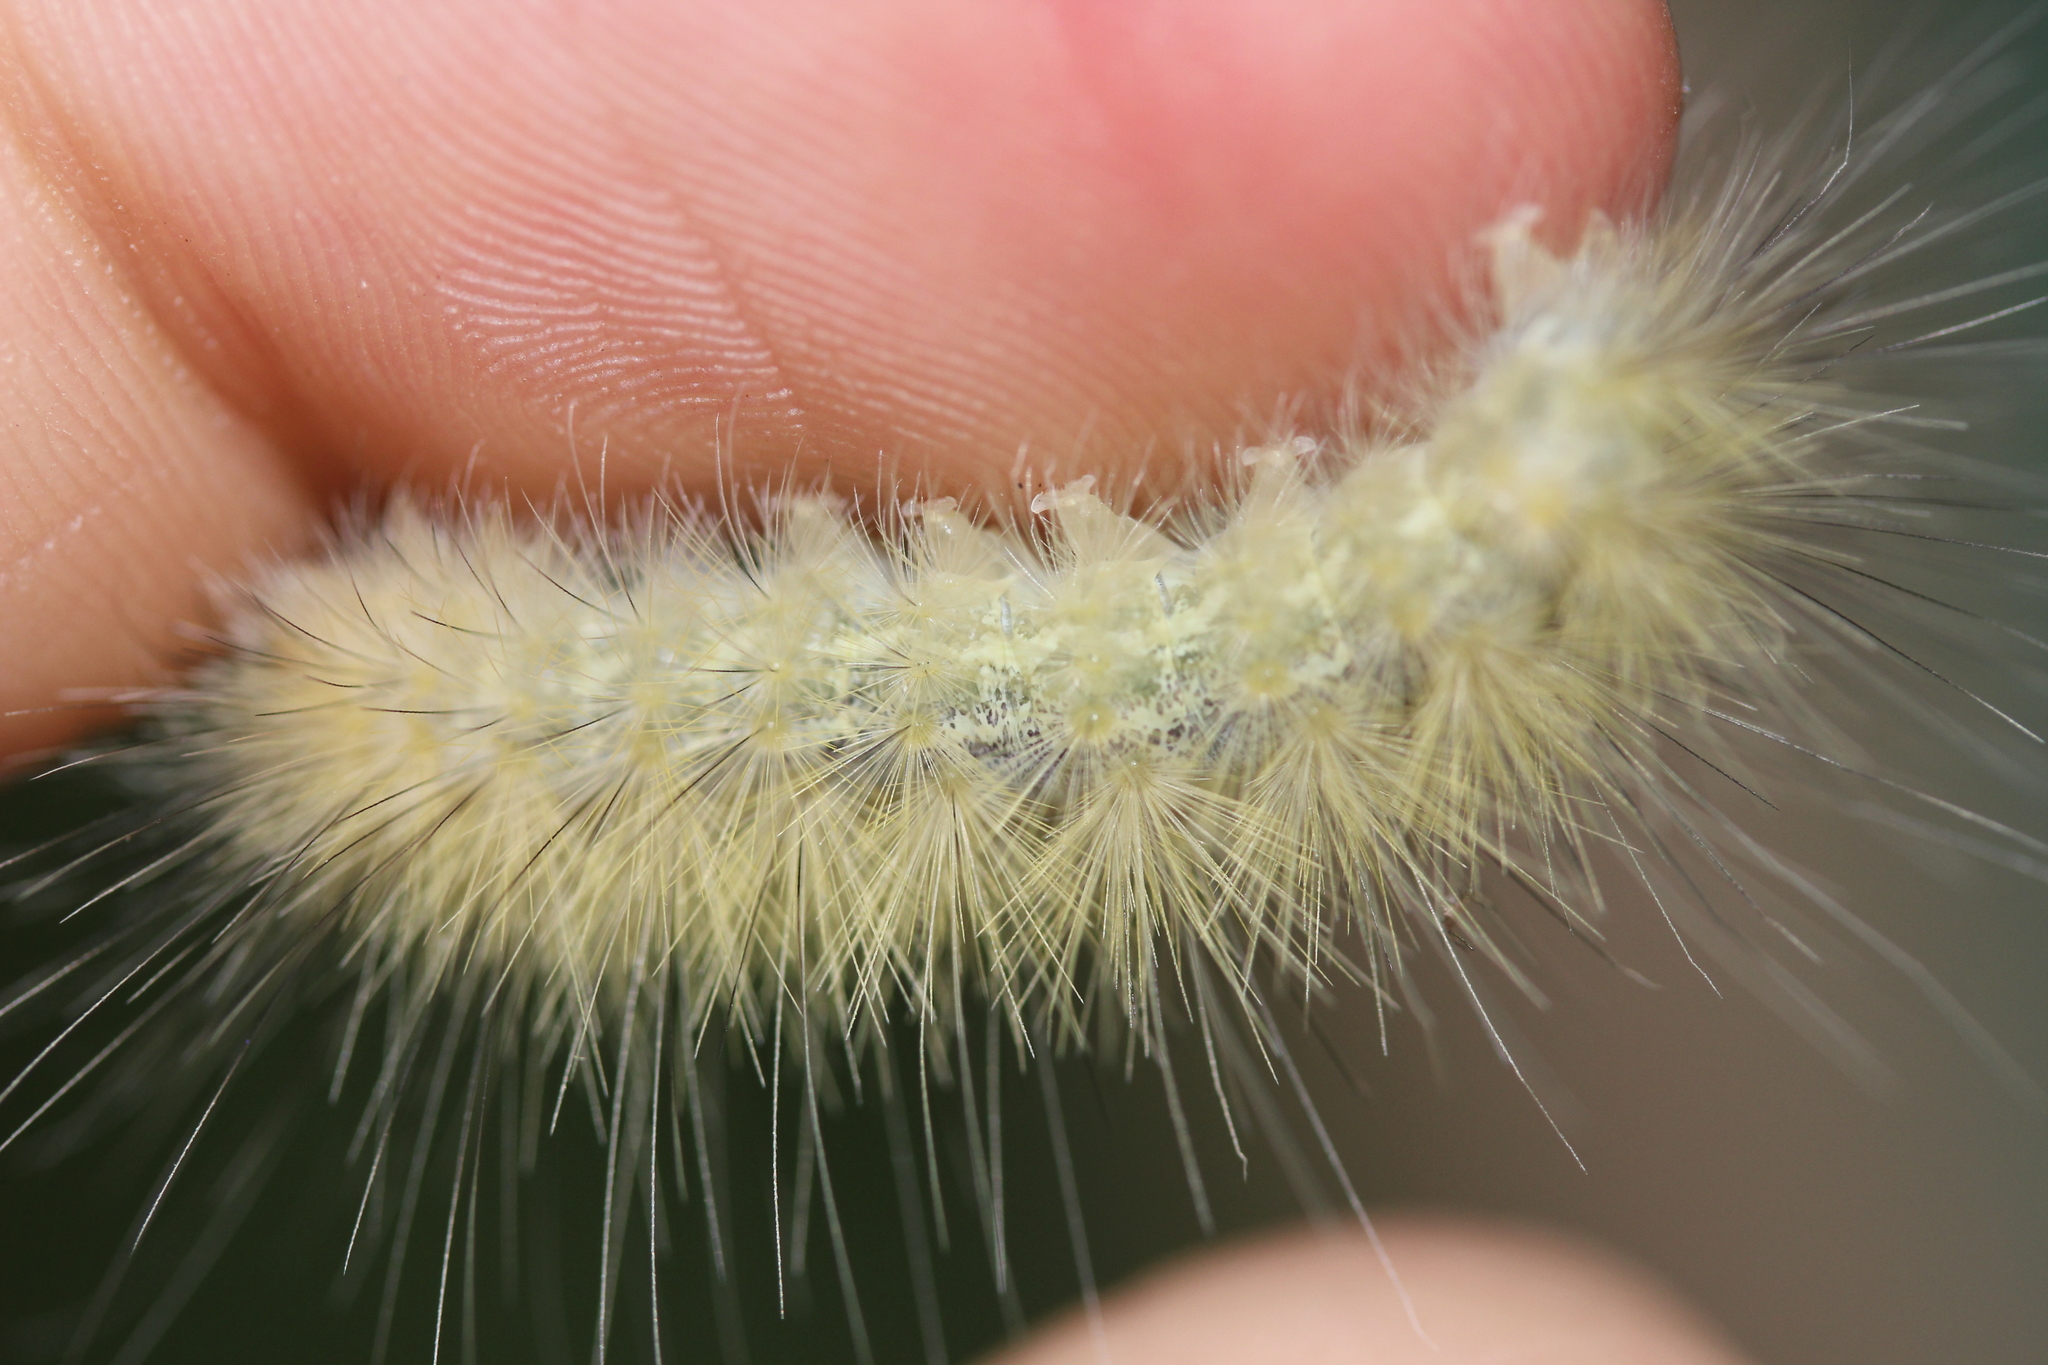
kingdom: Animalia
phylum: Arthropoda
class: Insecta
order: Lepidoptera
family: Erebidae
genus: Spilosoma
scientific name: Spilosoma virginica
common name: Virginia tiger moth
